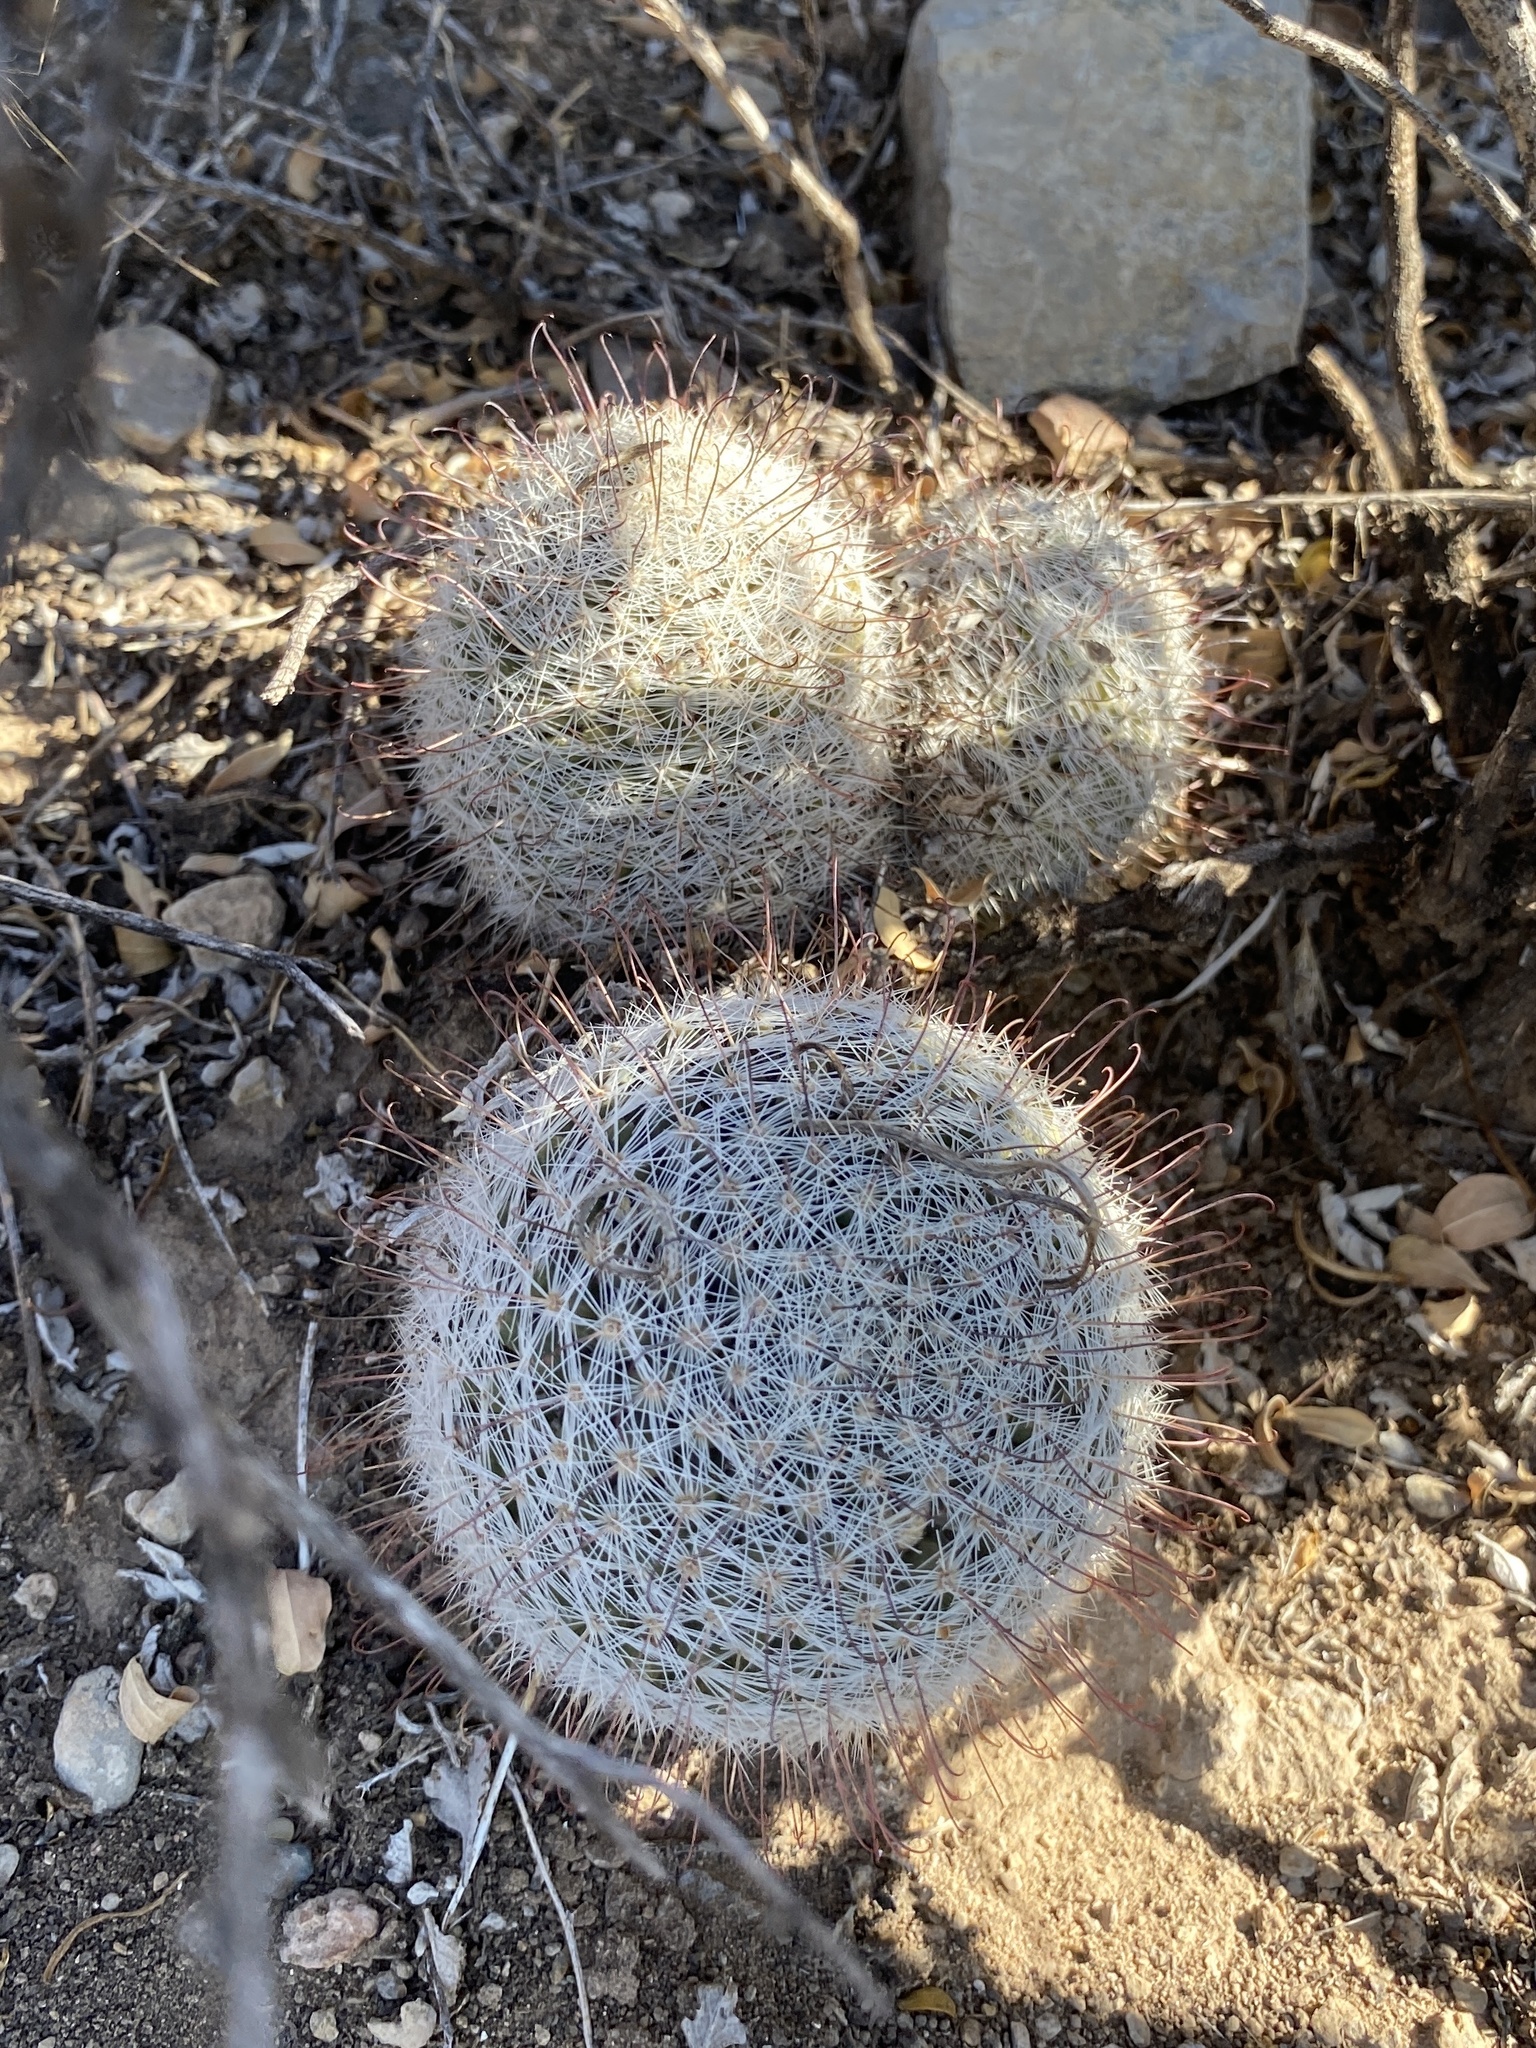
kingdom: Plantae
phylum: Tracheophyta
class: Magnoliopsida
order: Caryophyllales
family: Cactaceae
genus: Cochemiea
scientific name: Cochemiea grahamii
